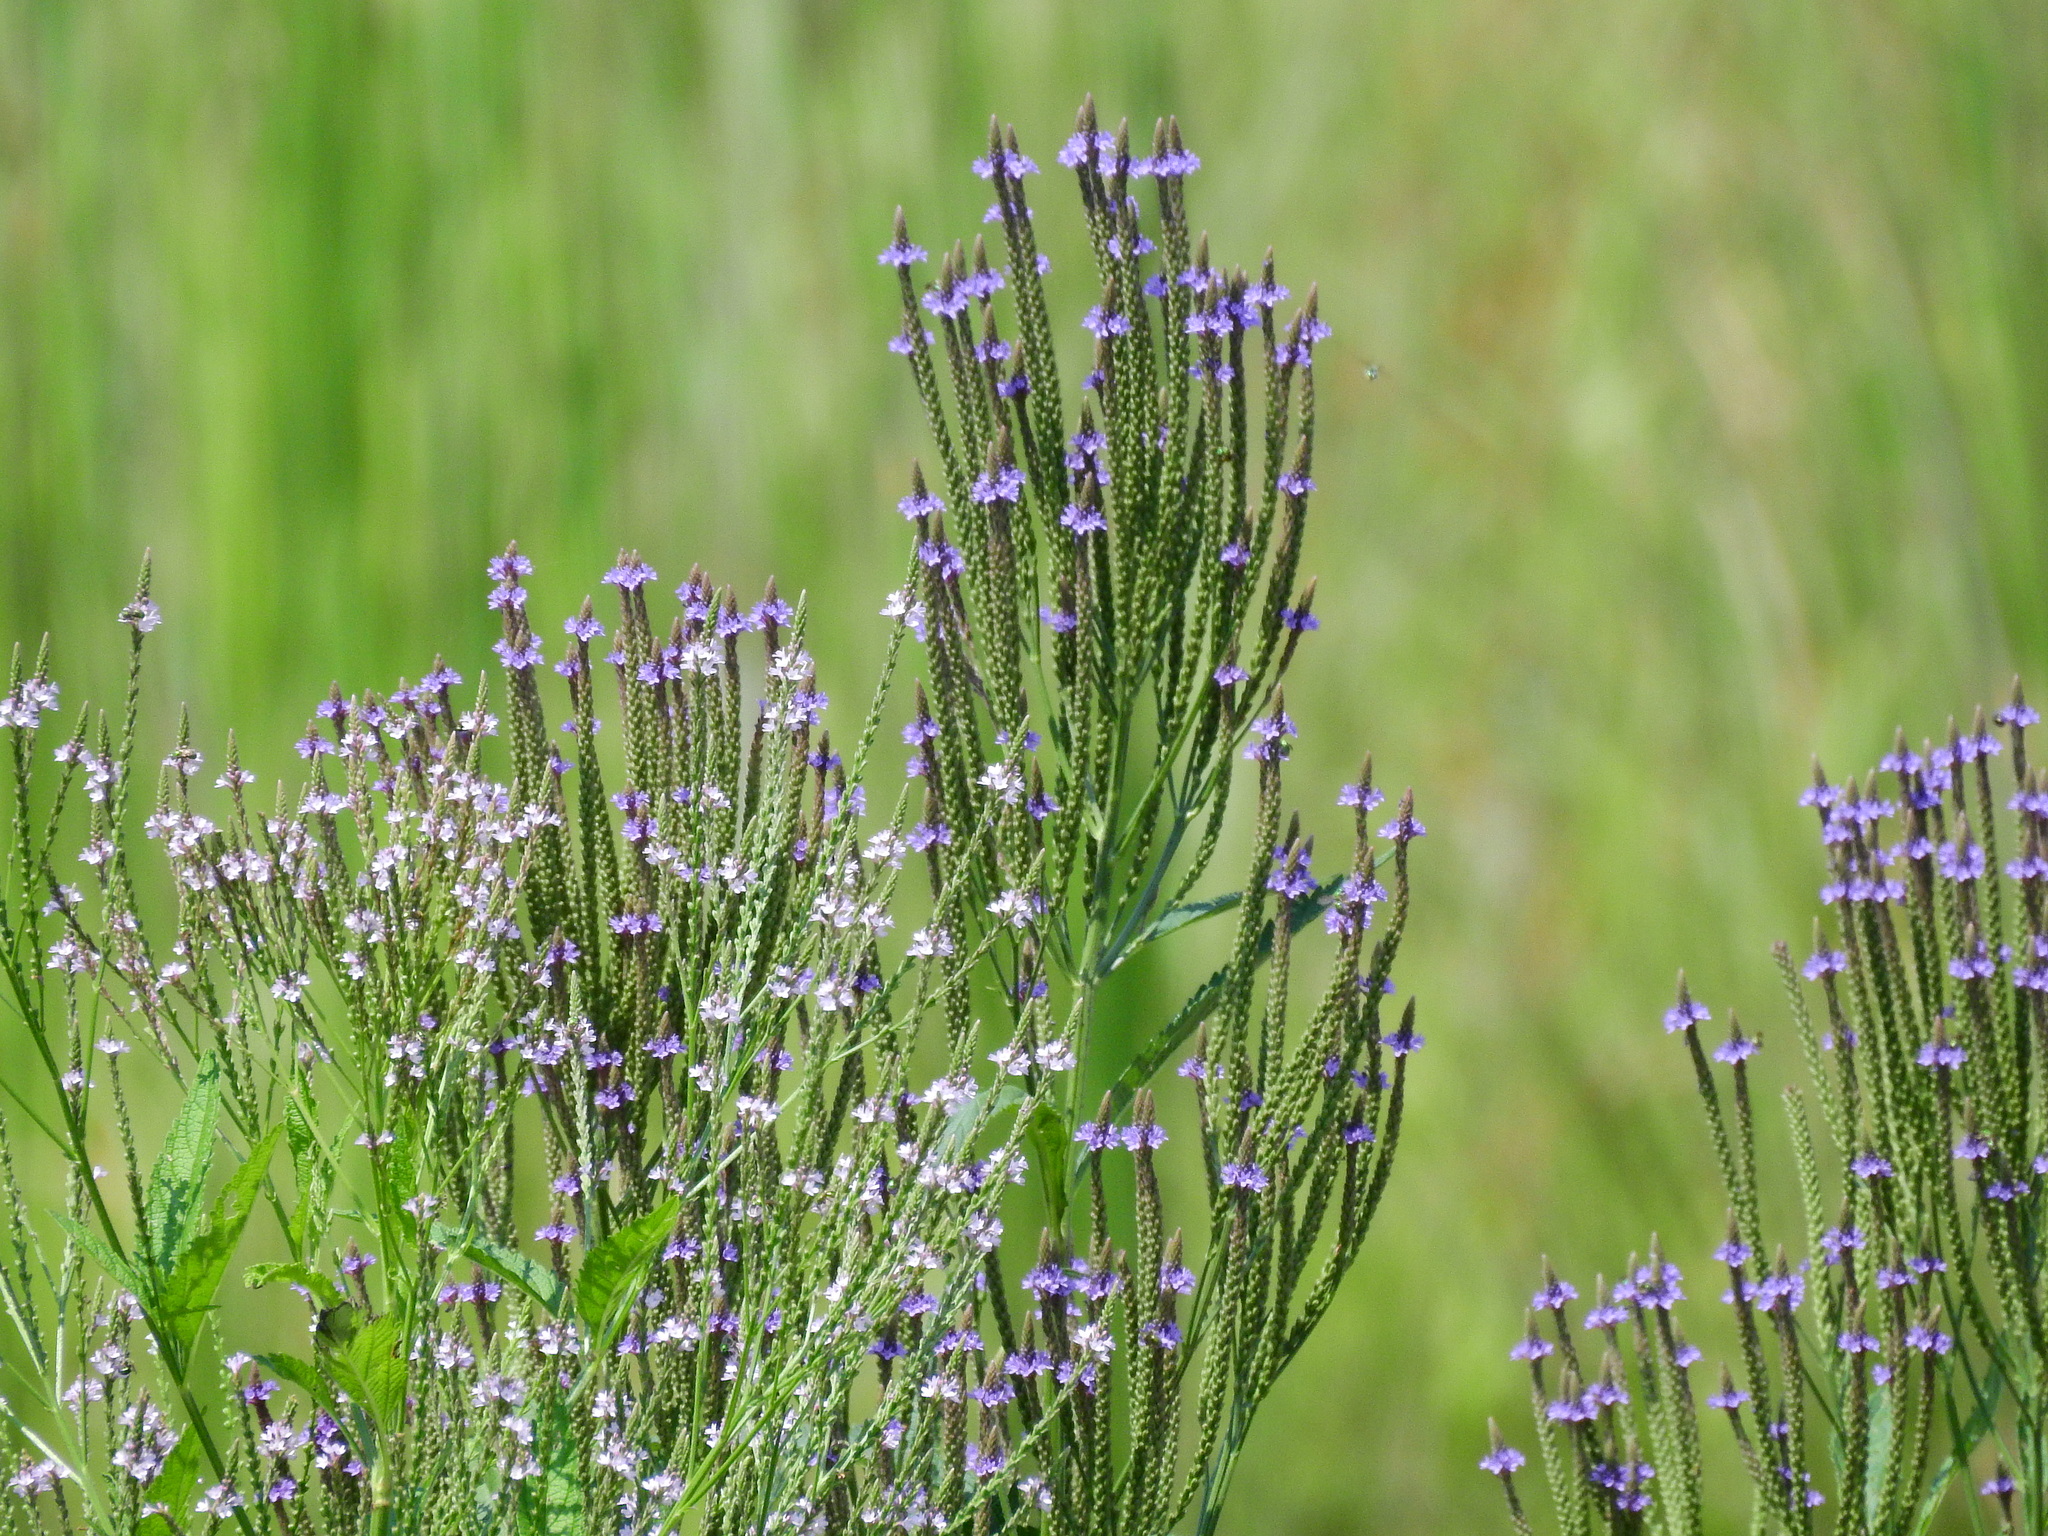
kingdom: Plantae
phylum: Tracheophyta
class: Magnoliopsida
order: Lamiales
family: Verbenaceae
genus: Verbena
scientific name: Verbena hastata
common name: American blue vervain
